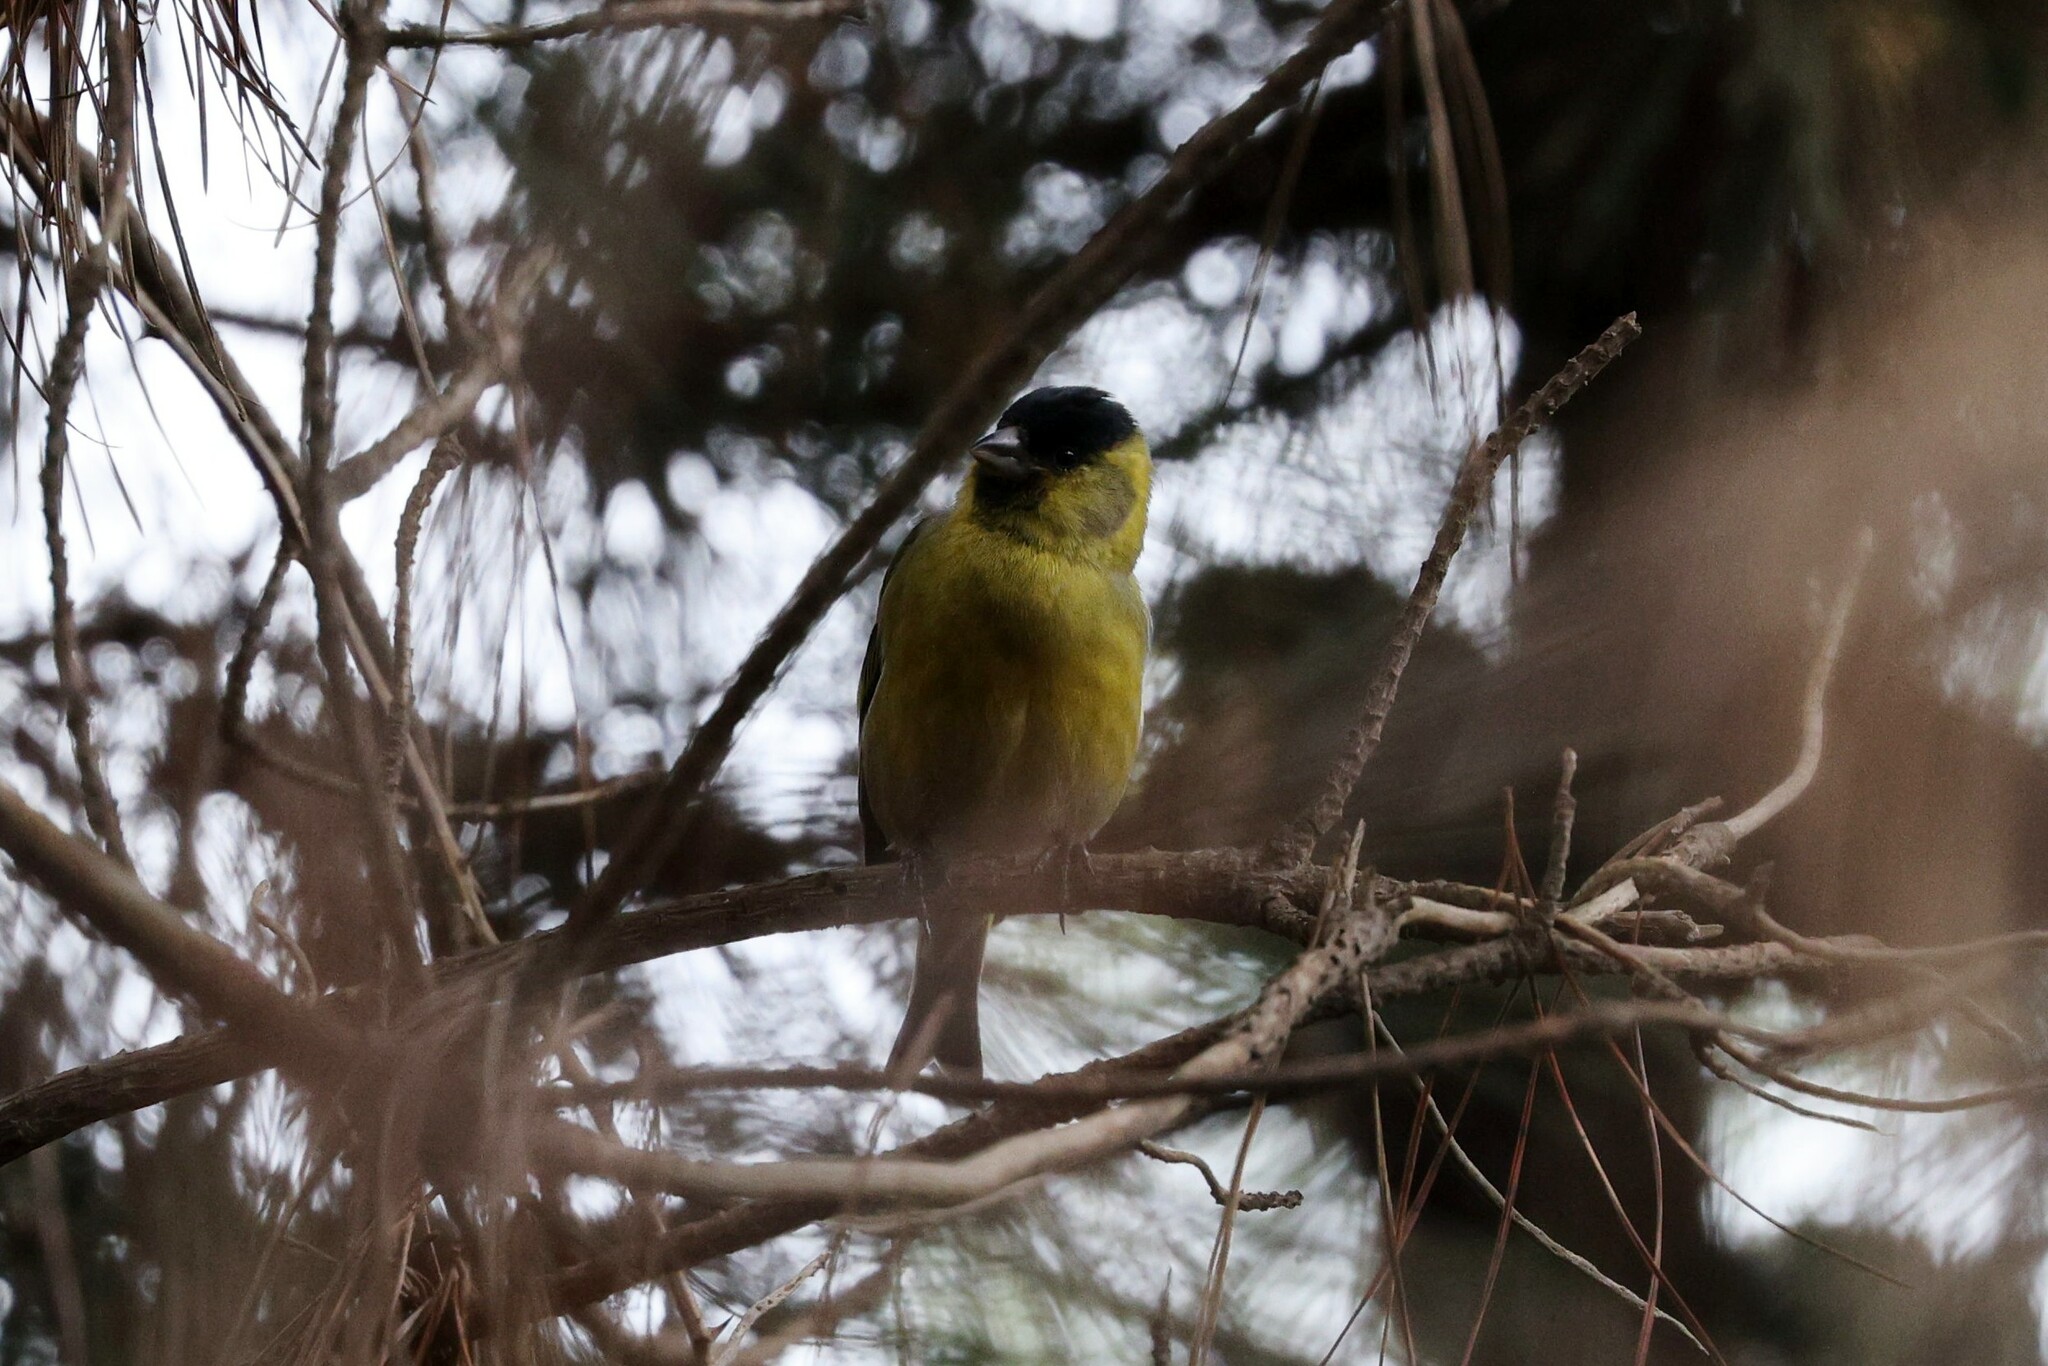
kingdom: Animalia
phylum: Chordata
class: Aves
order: Passeriformes
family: Fringillidae
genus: Spinus
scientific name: Spinus barbatus
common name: Black-chinned siskin
